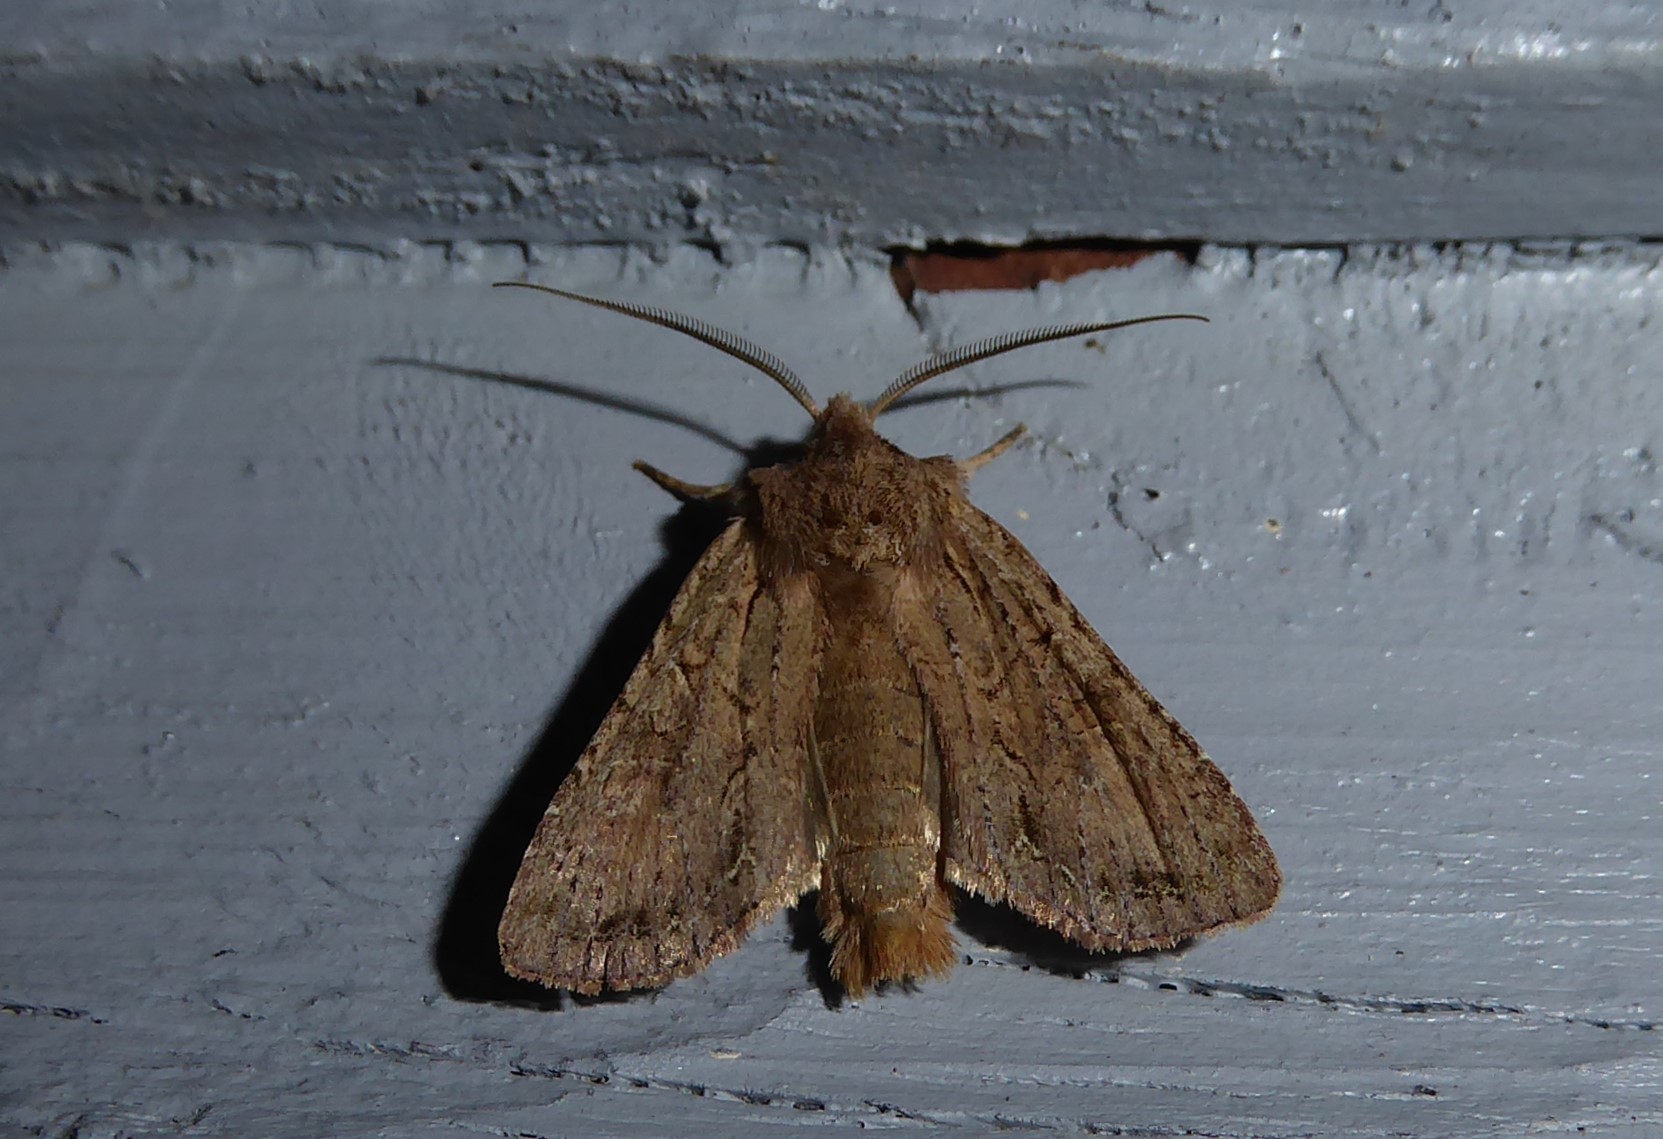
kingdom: Animalia
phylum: Arthropoda
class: Insecta
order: Lepidoptera
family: Noctuidae
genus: Ichneutica
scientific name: Ichneutica
